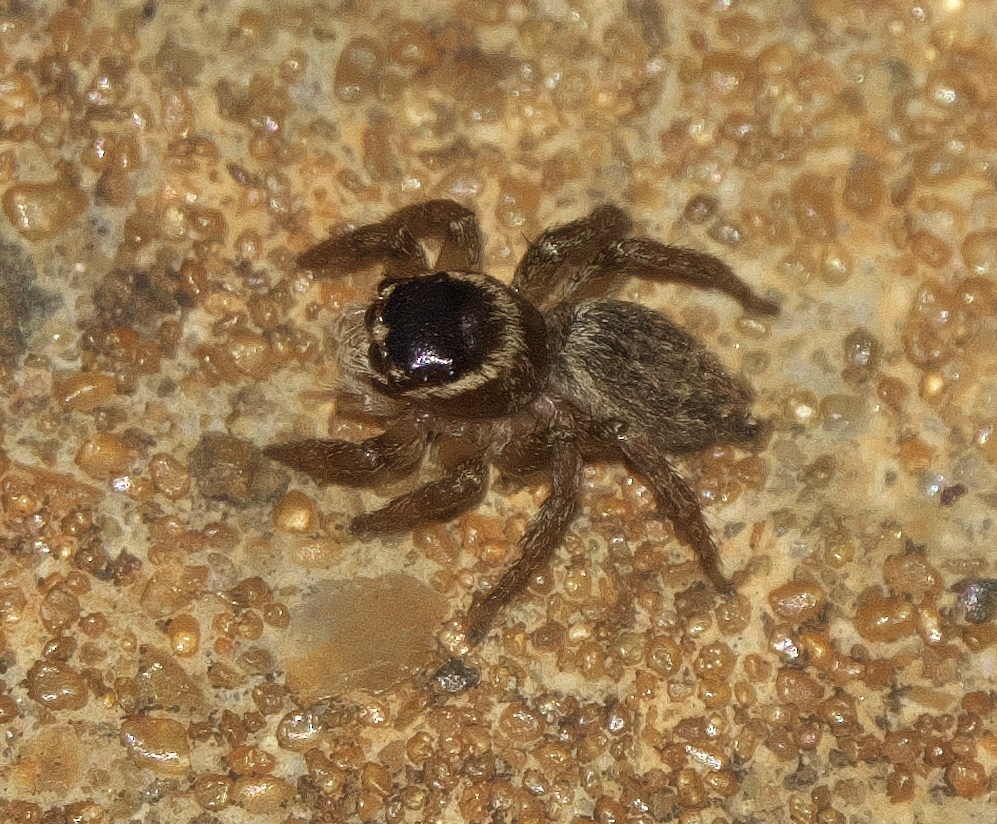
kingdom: Animalia
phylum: Arthropoda
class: Arachnida
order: Araneae
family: Salticidae
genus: Maratus
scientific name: Maratus griseus
